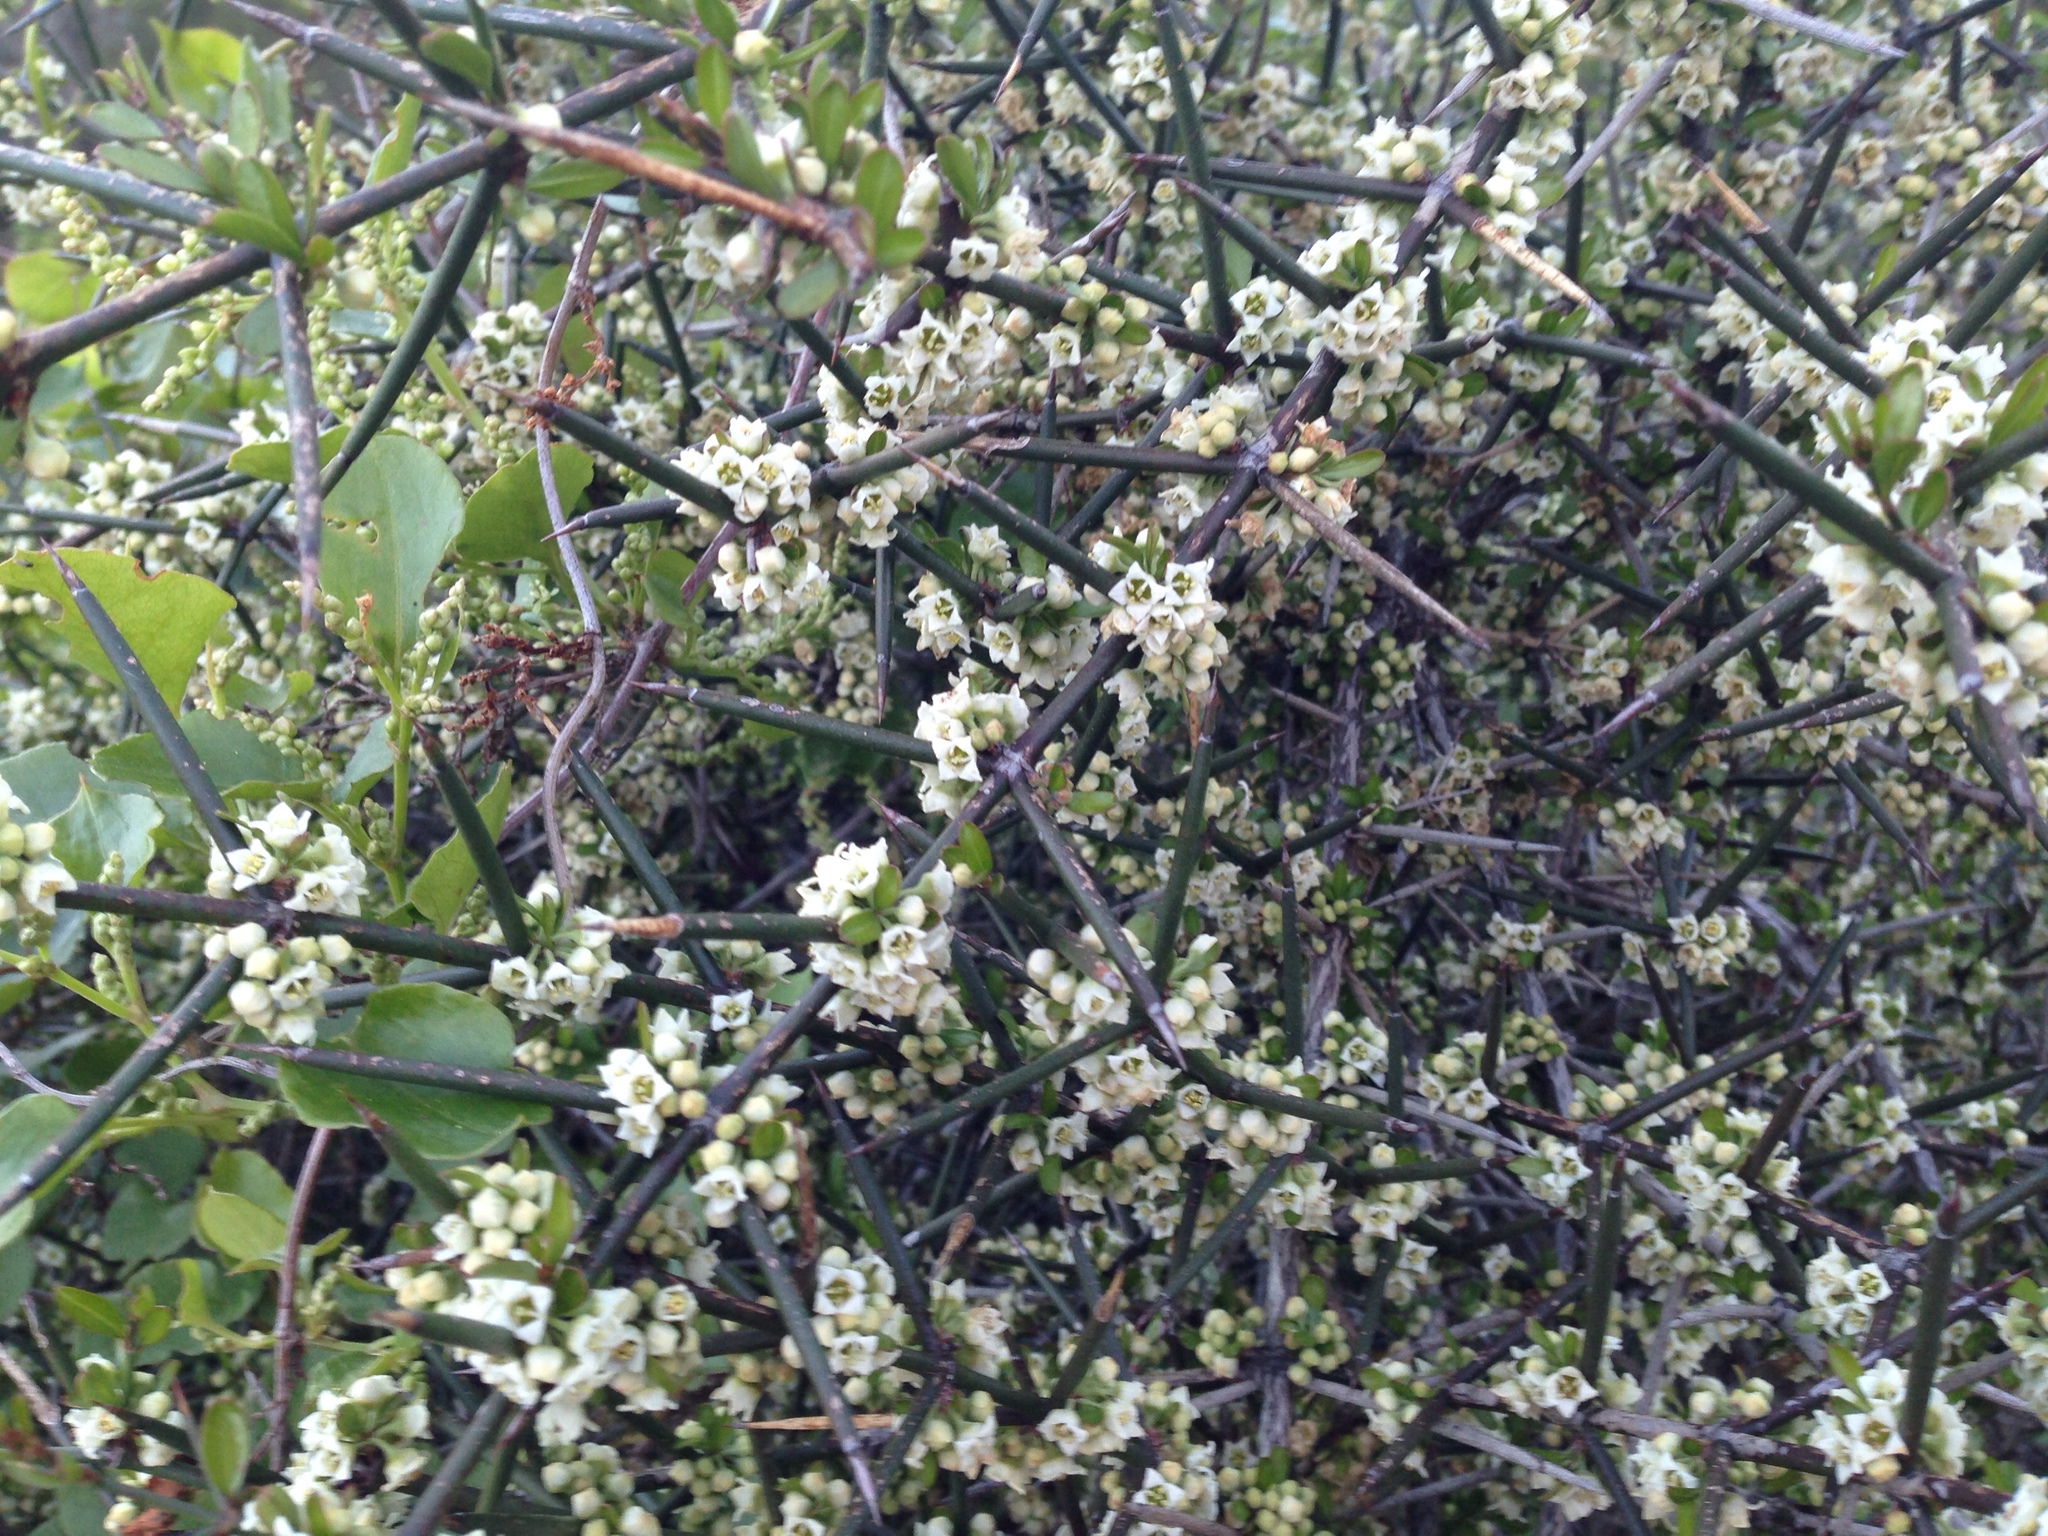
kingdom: Plantae
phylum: Tracheophyta
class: Magnoliopsida
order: Rosales
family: Rhamnaceae
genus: Discaria
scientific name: Discaria toumatou
